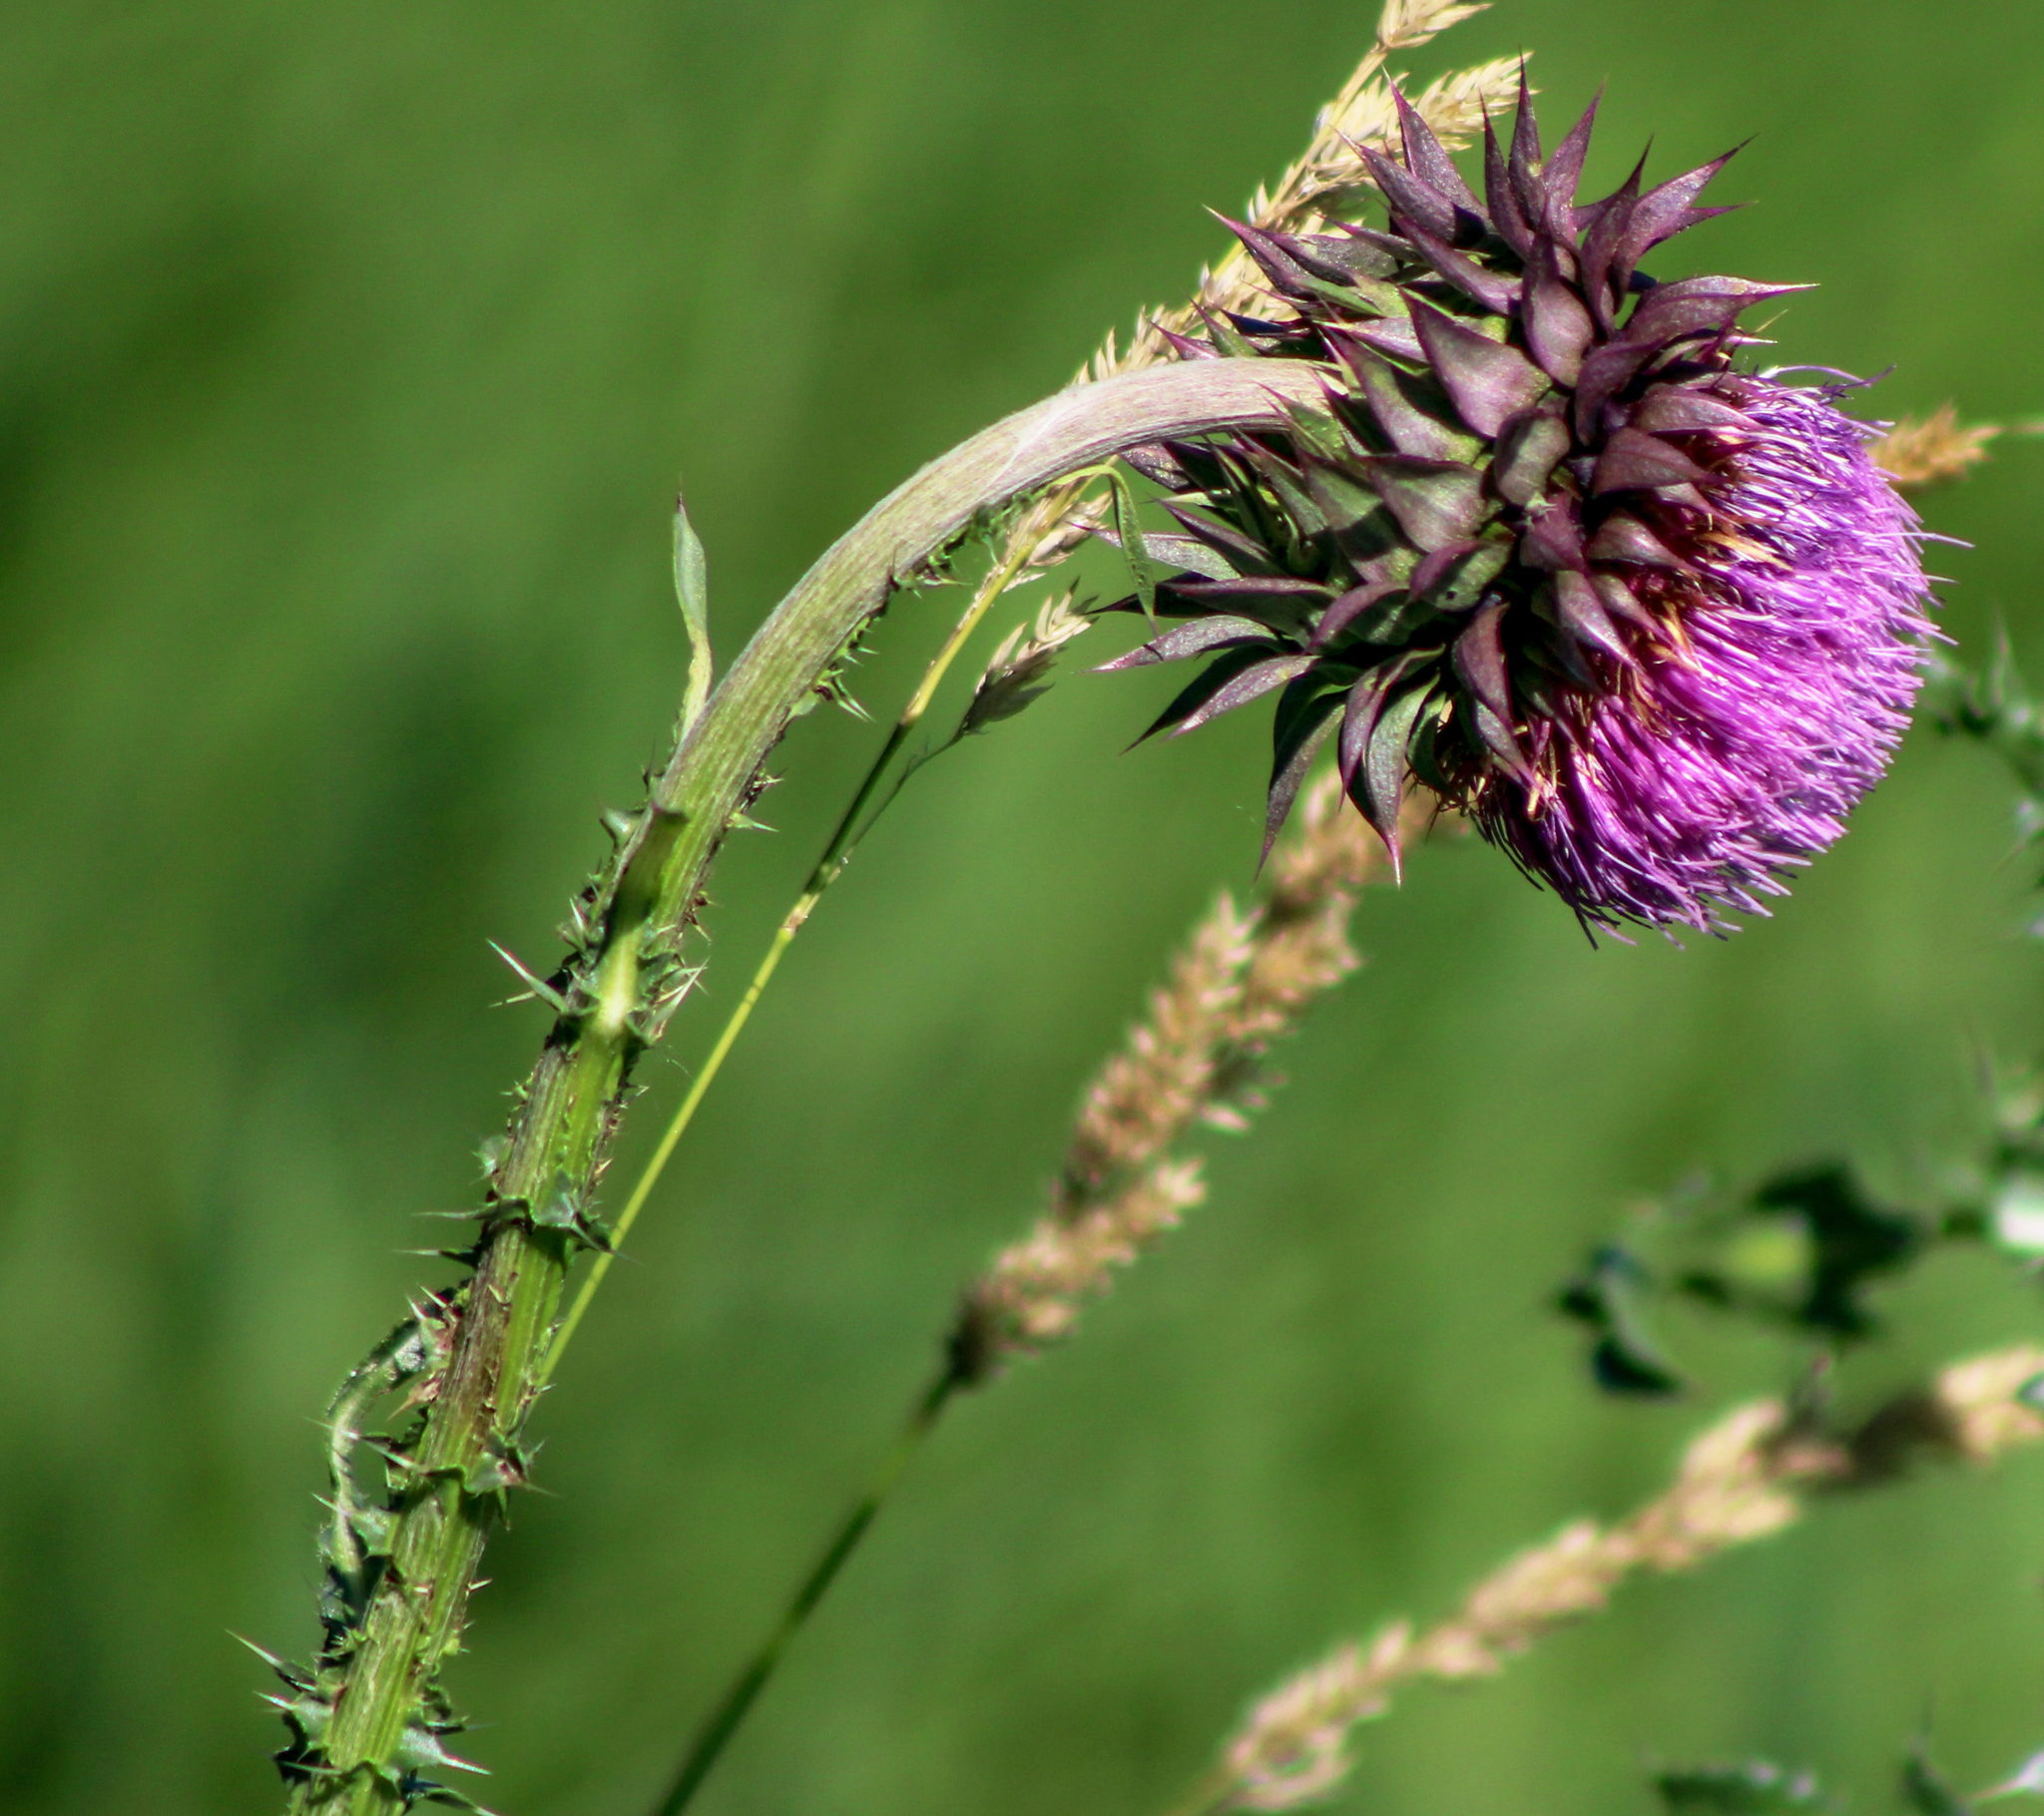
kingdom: Plantae
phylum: Tracheophyta
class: Magnoliopsida
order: Asterales
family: Asteraceae
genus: Carduus
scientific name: Carduus nutans
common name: Musk thistle
